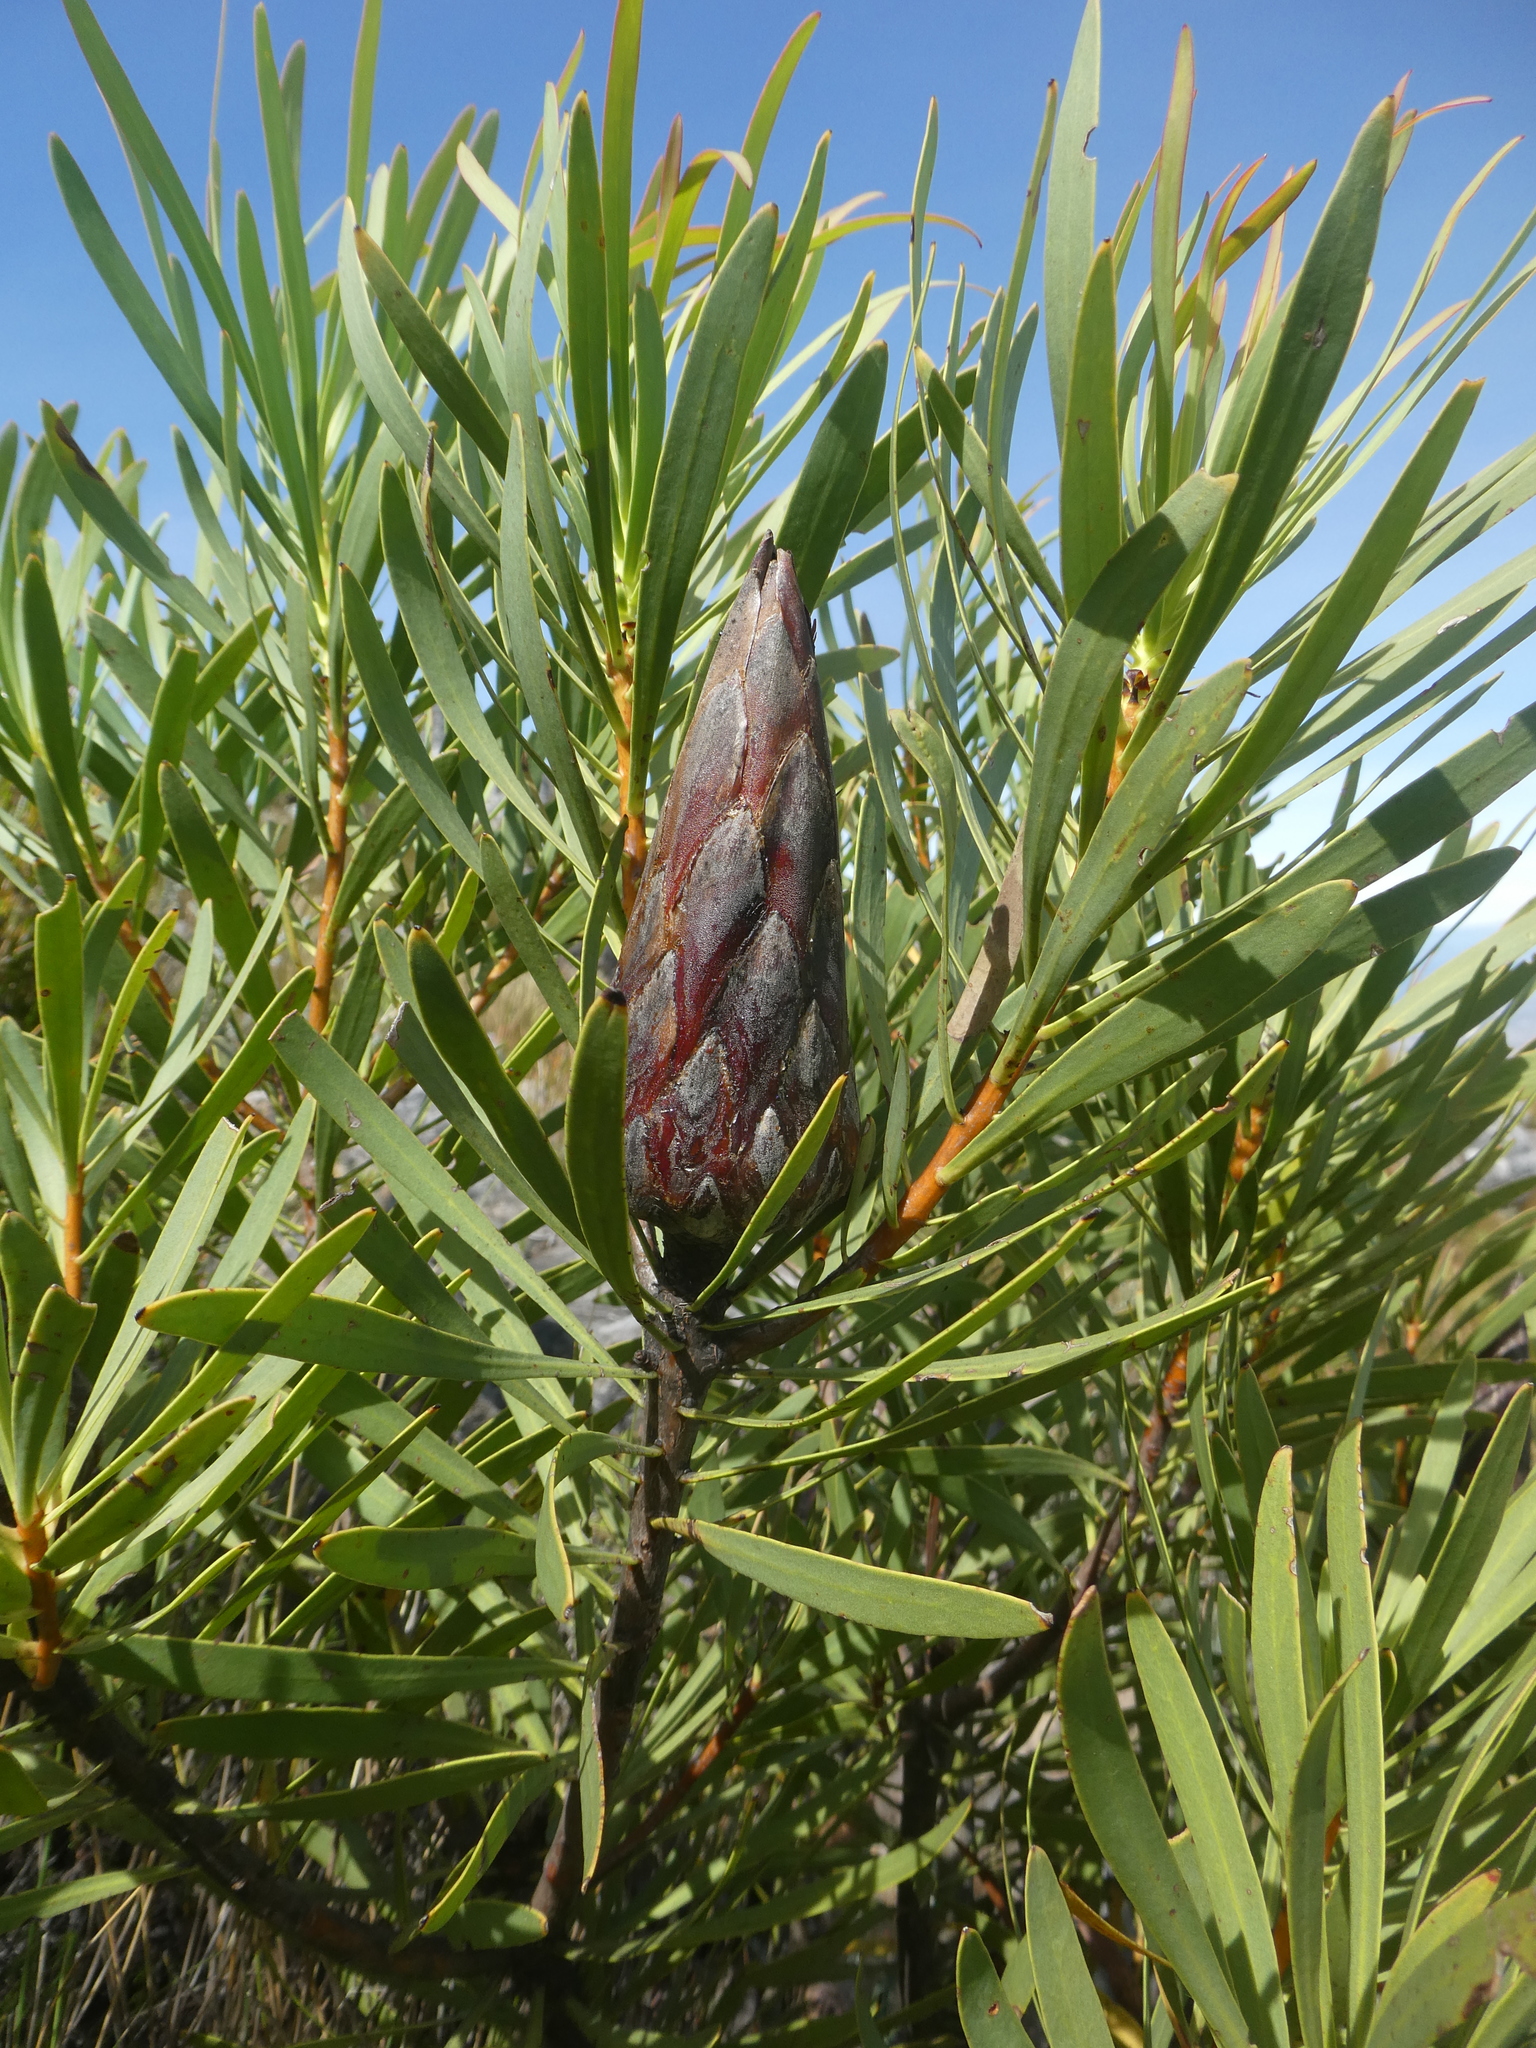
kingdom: Plantae
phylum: Tracheophyta
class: Magnoliopsida
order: Proteales
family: Proteaceae
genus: Protea
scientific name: Protea repens
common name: Sugarbush
